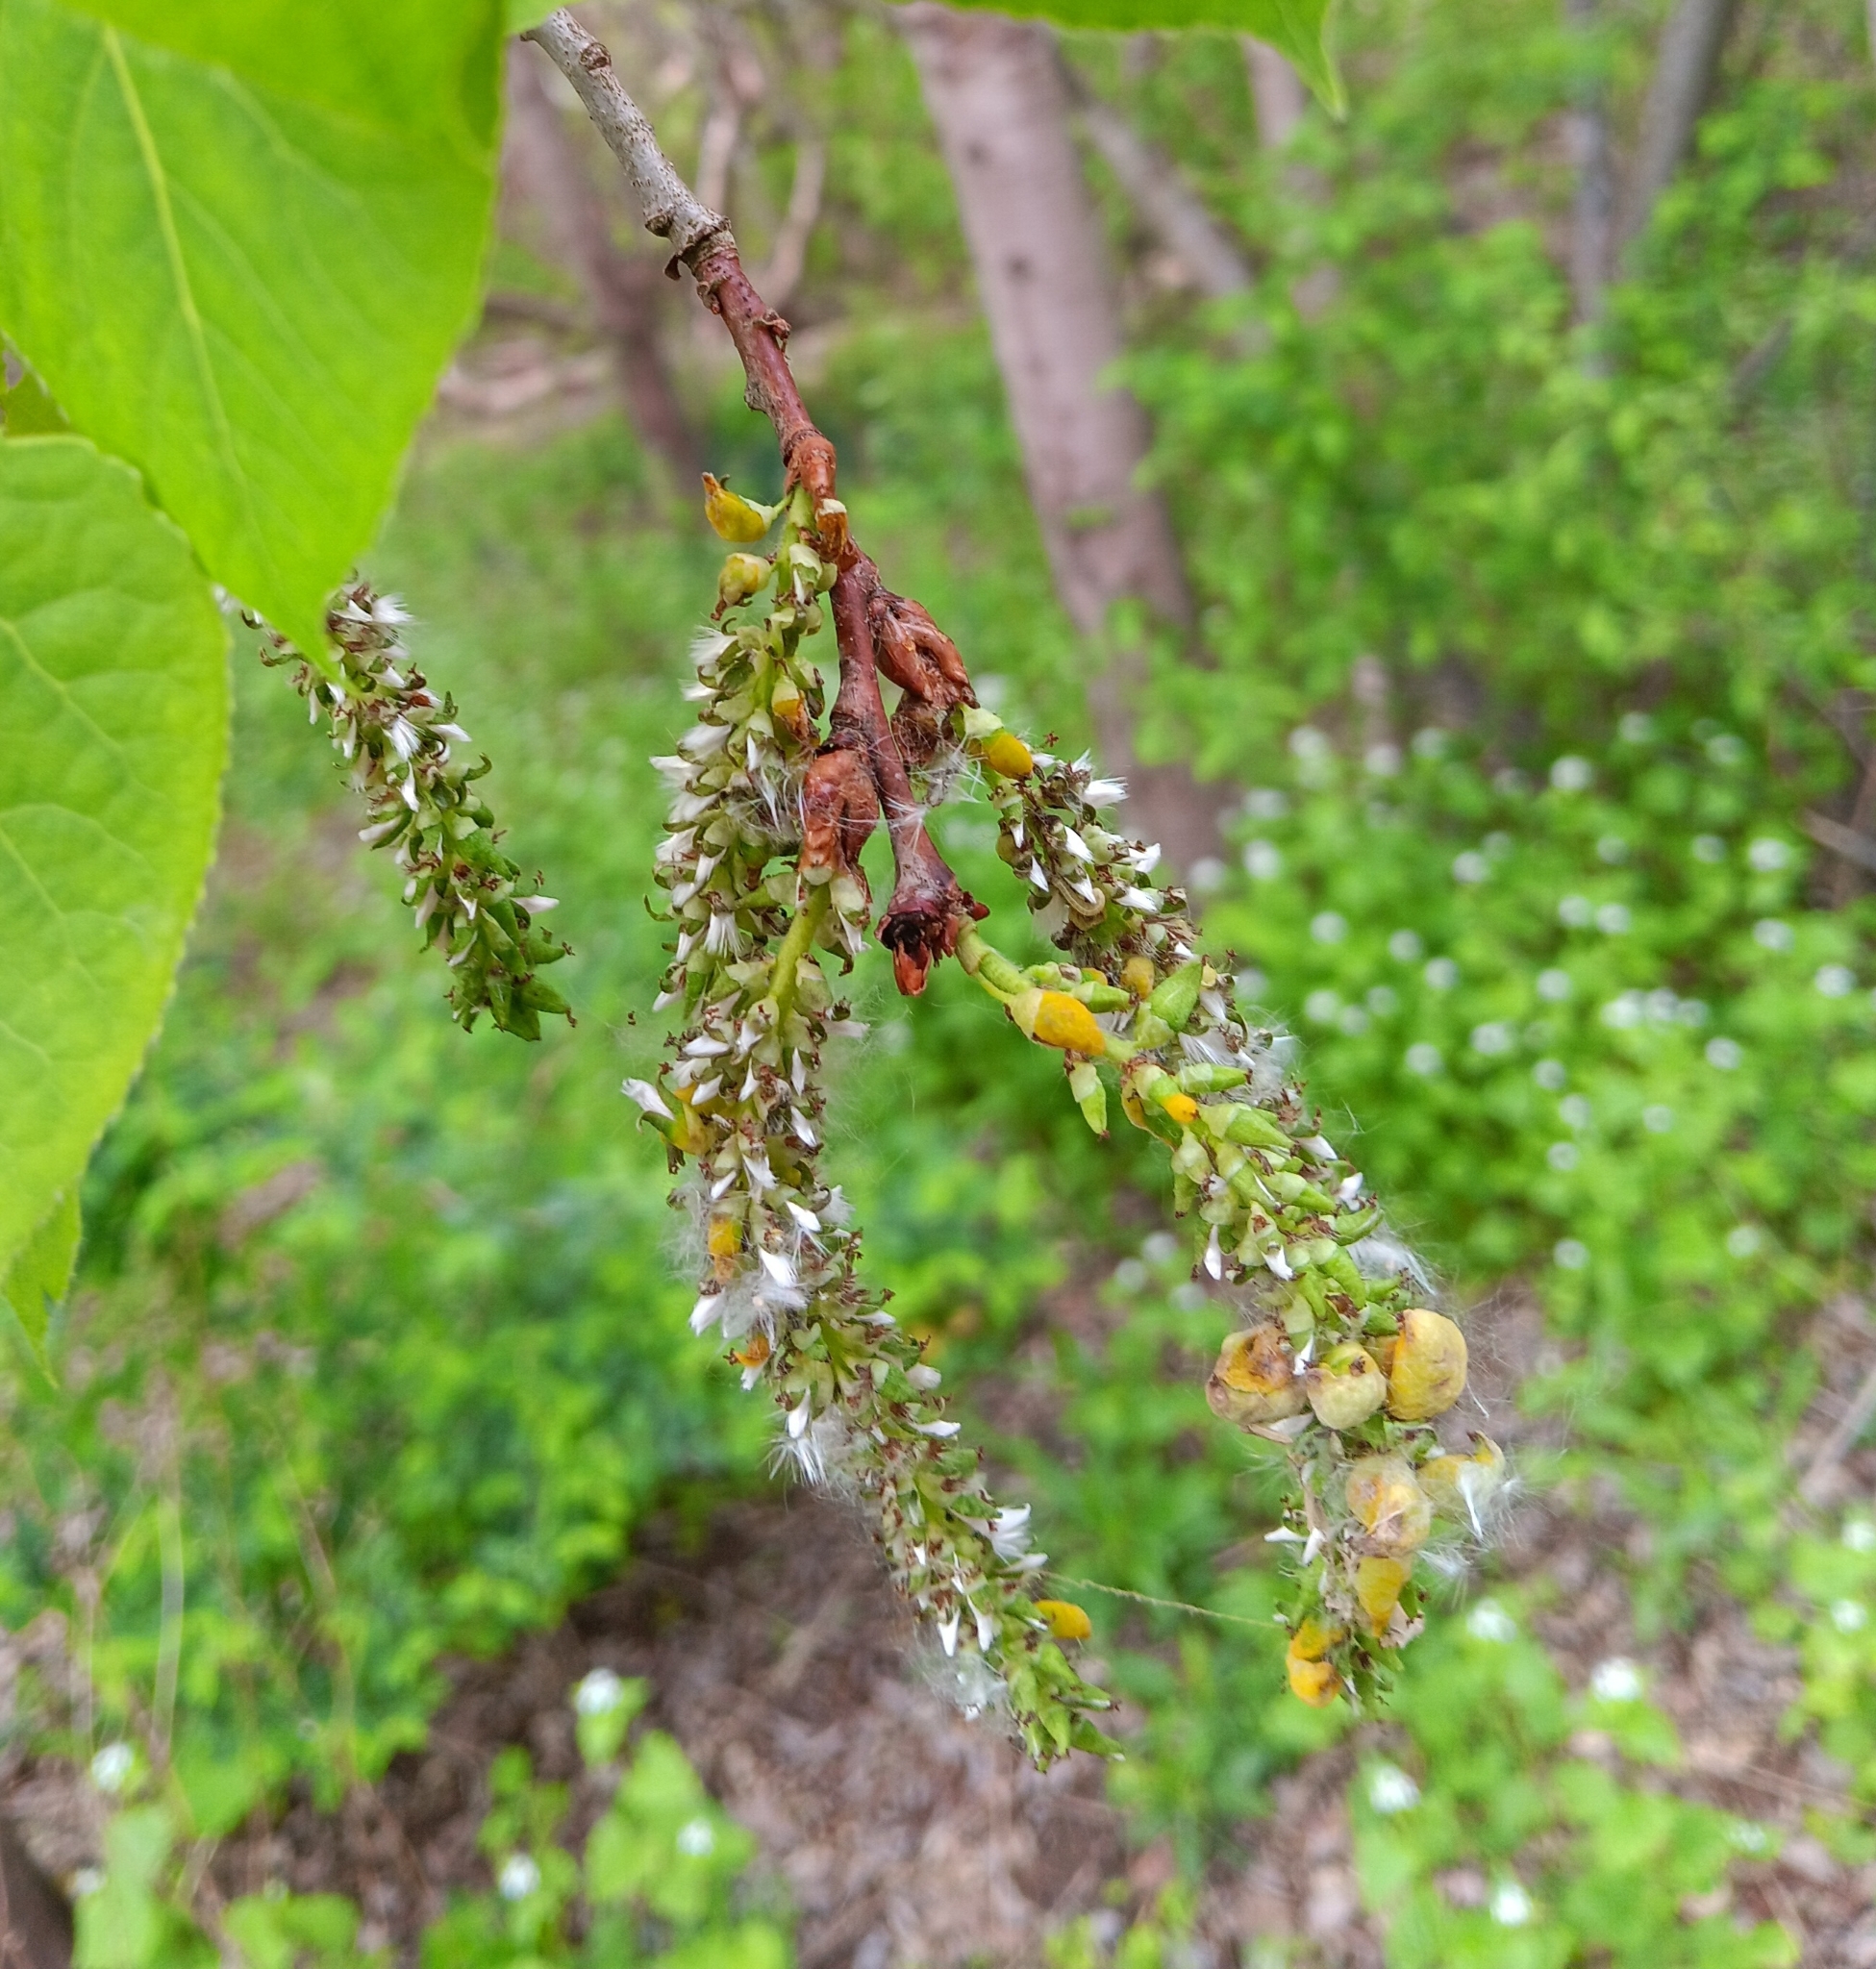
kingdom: Plantae
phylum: Tracheophyta
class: Magnoliopsida
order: Malpighiales
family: Salicaceae
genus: Populus
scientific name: Populus tremuloides
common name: Quaking aspen
